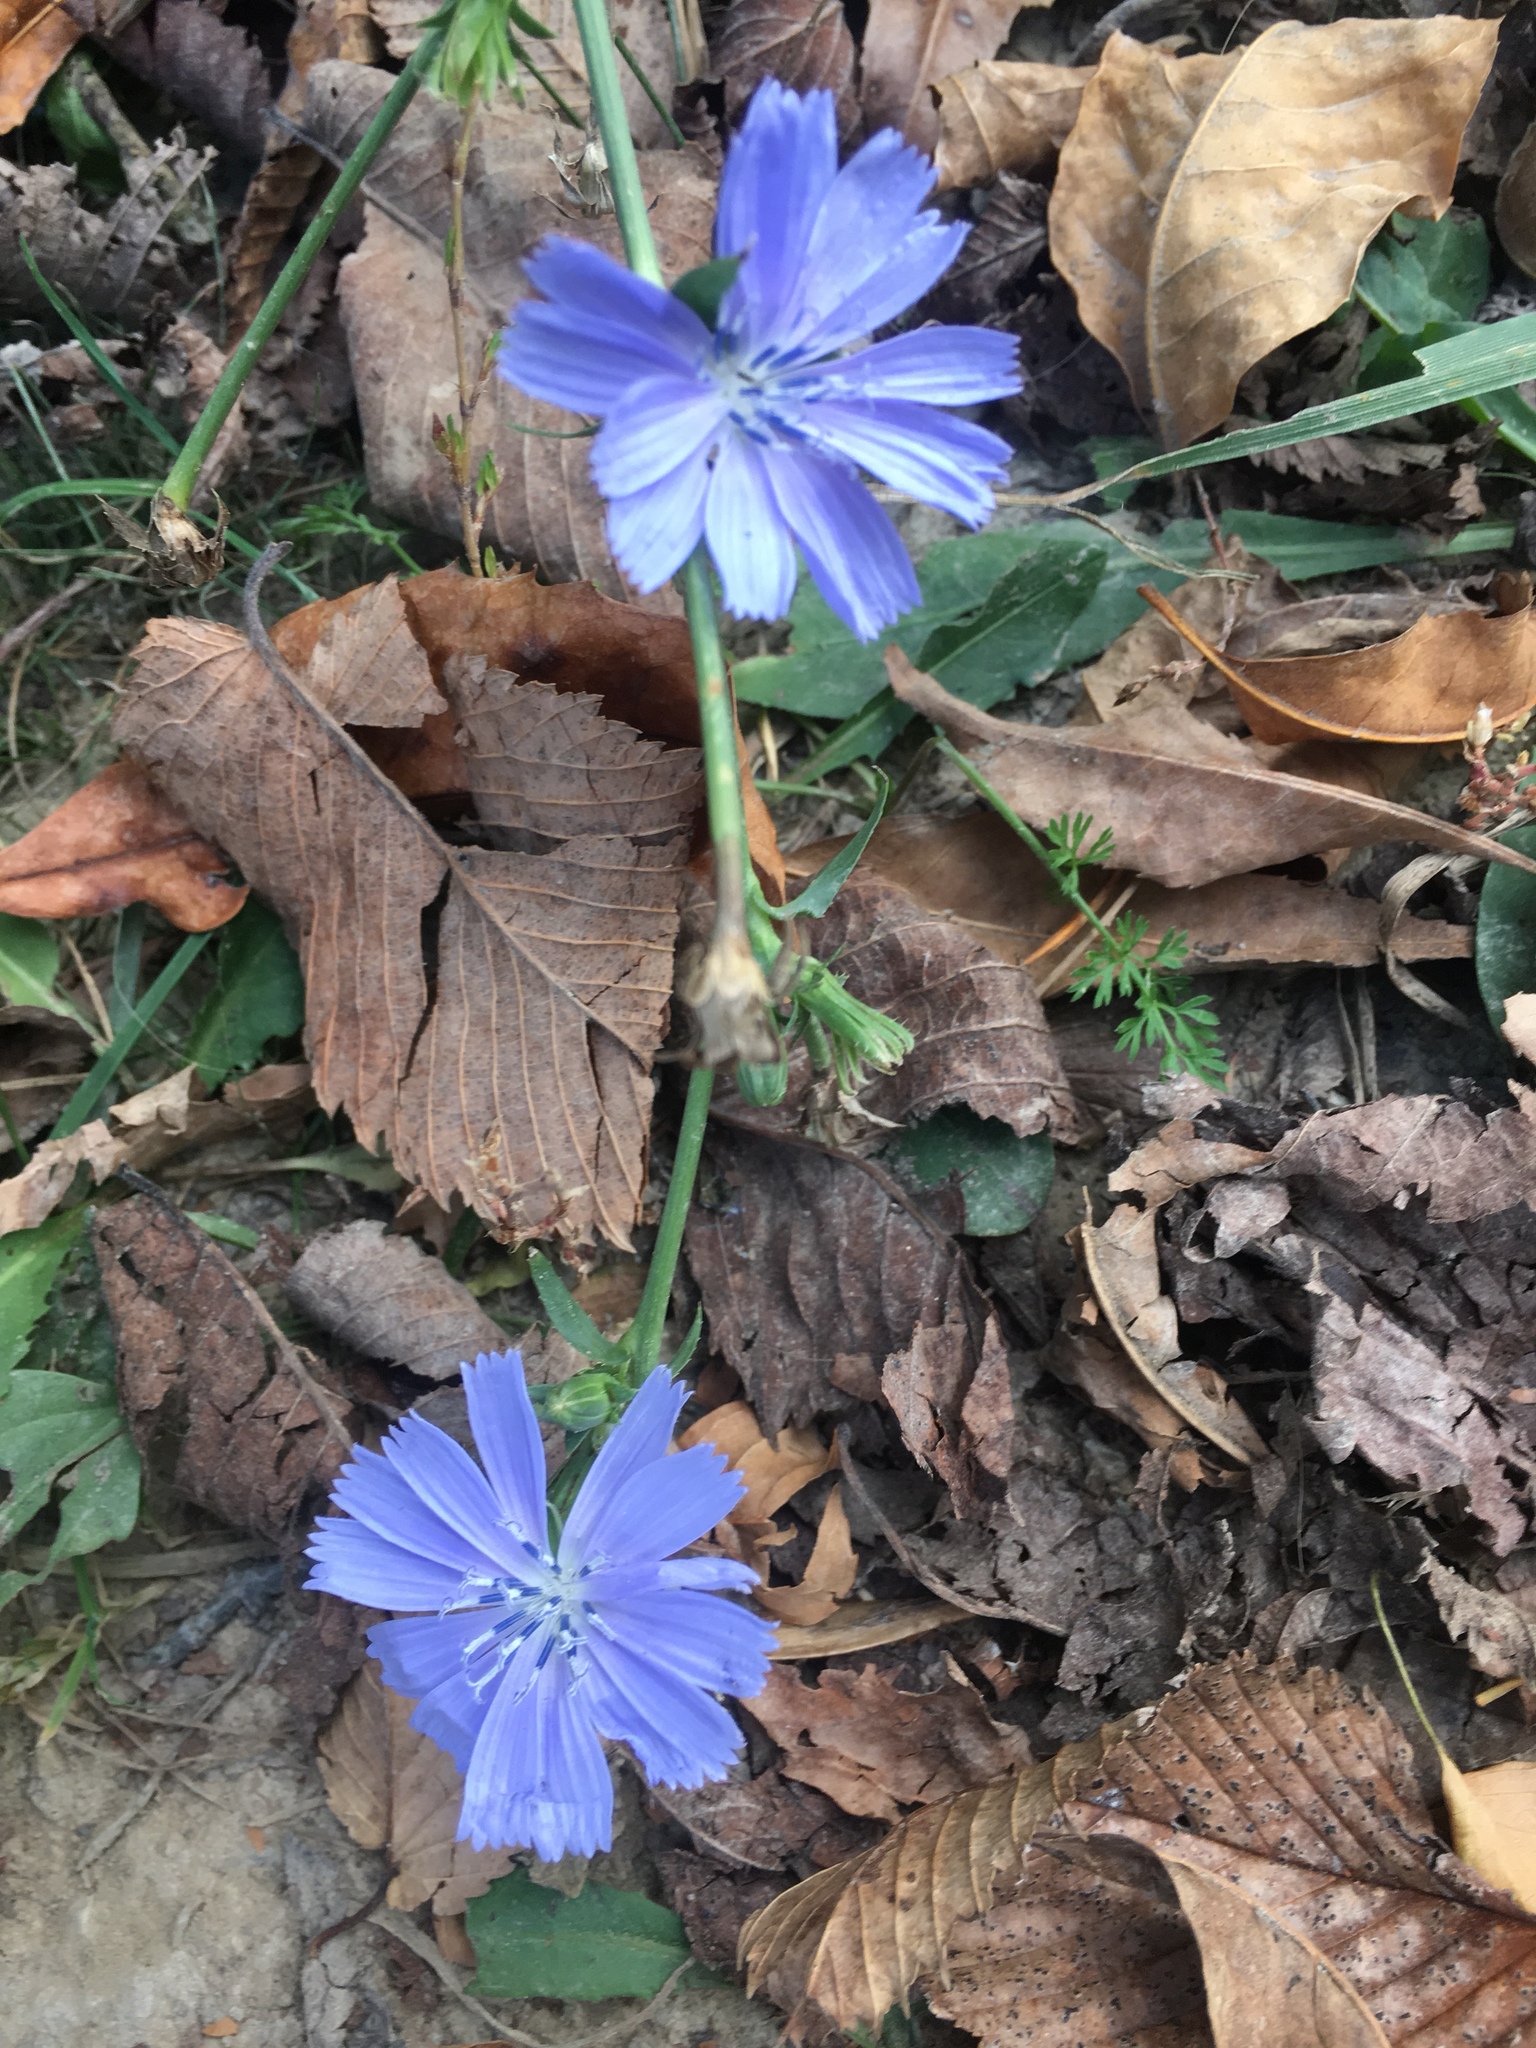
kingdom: Plantae
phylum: Tracheophyta
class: Magnoliopsida
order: Asterales
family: Asteraceae
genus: Cichorium
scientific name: Cichorium intybus
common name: Chicory
